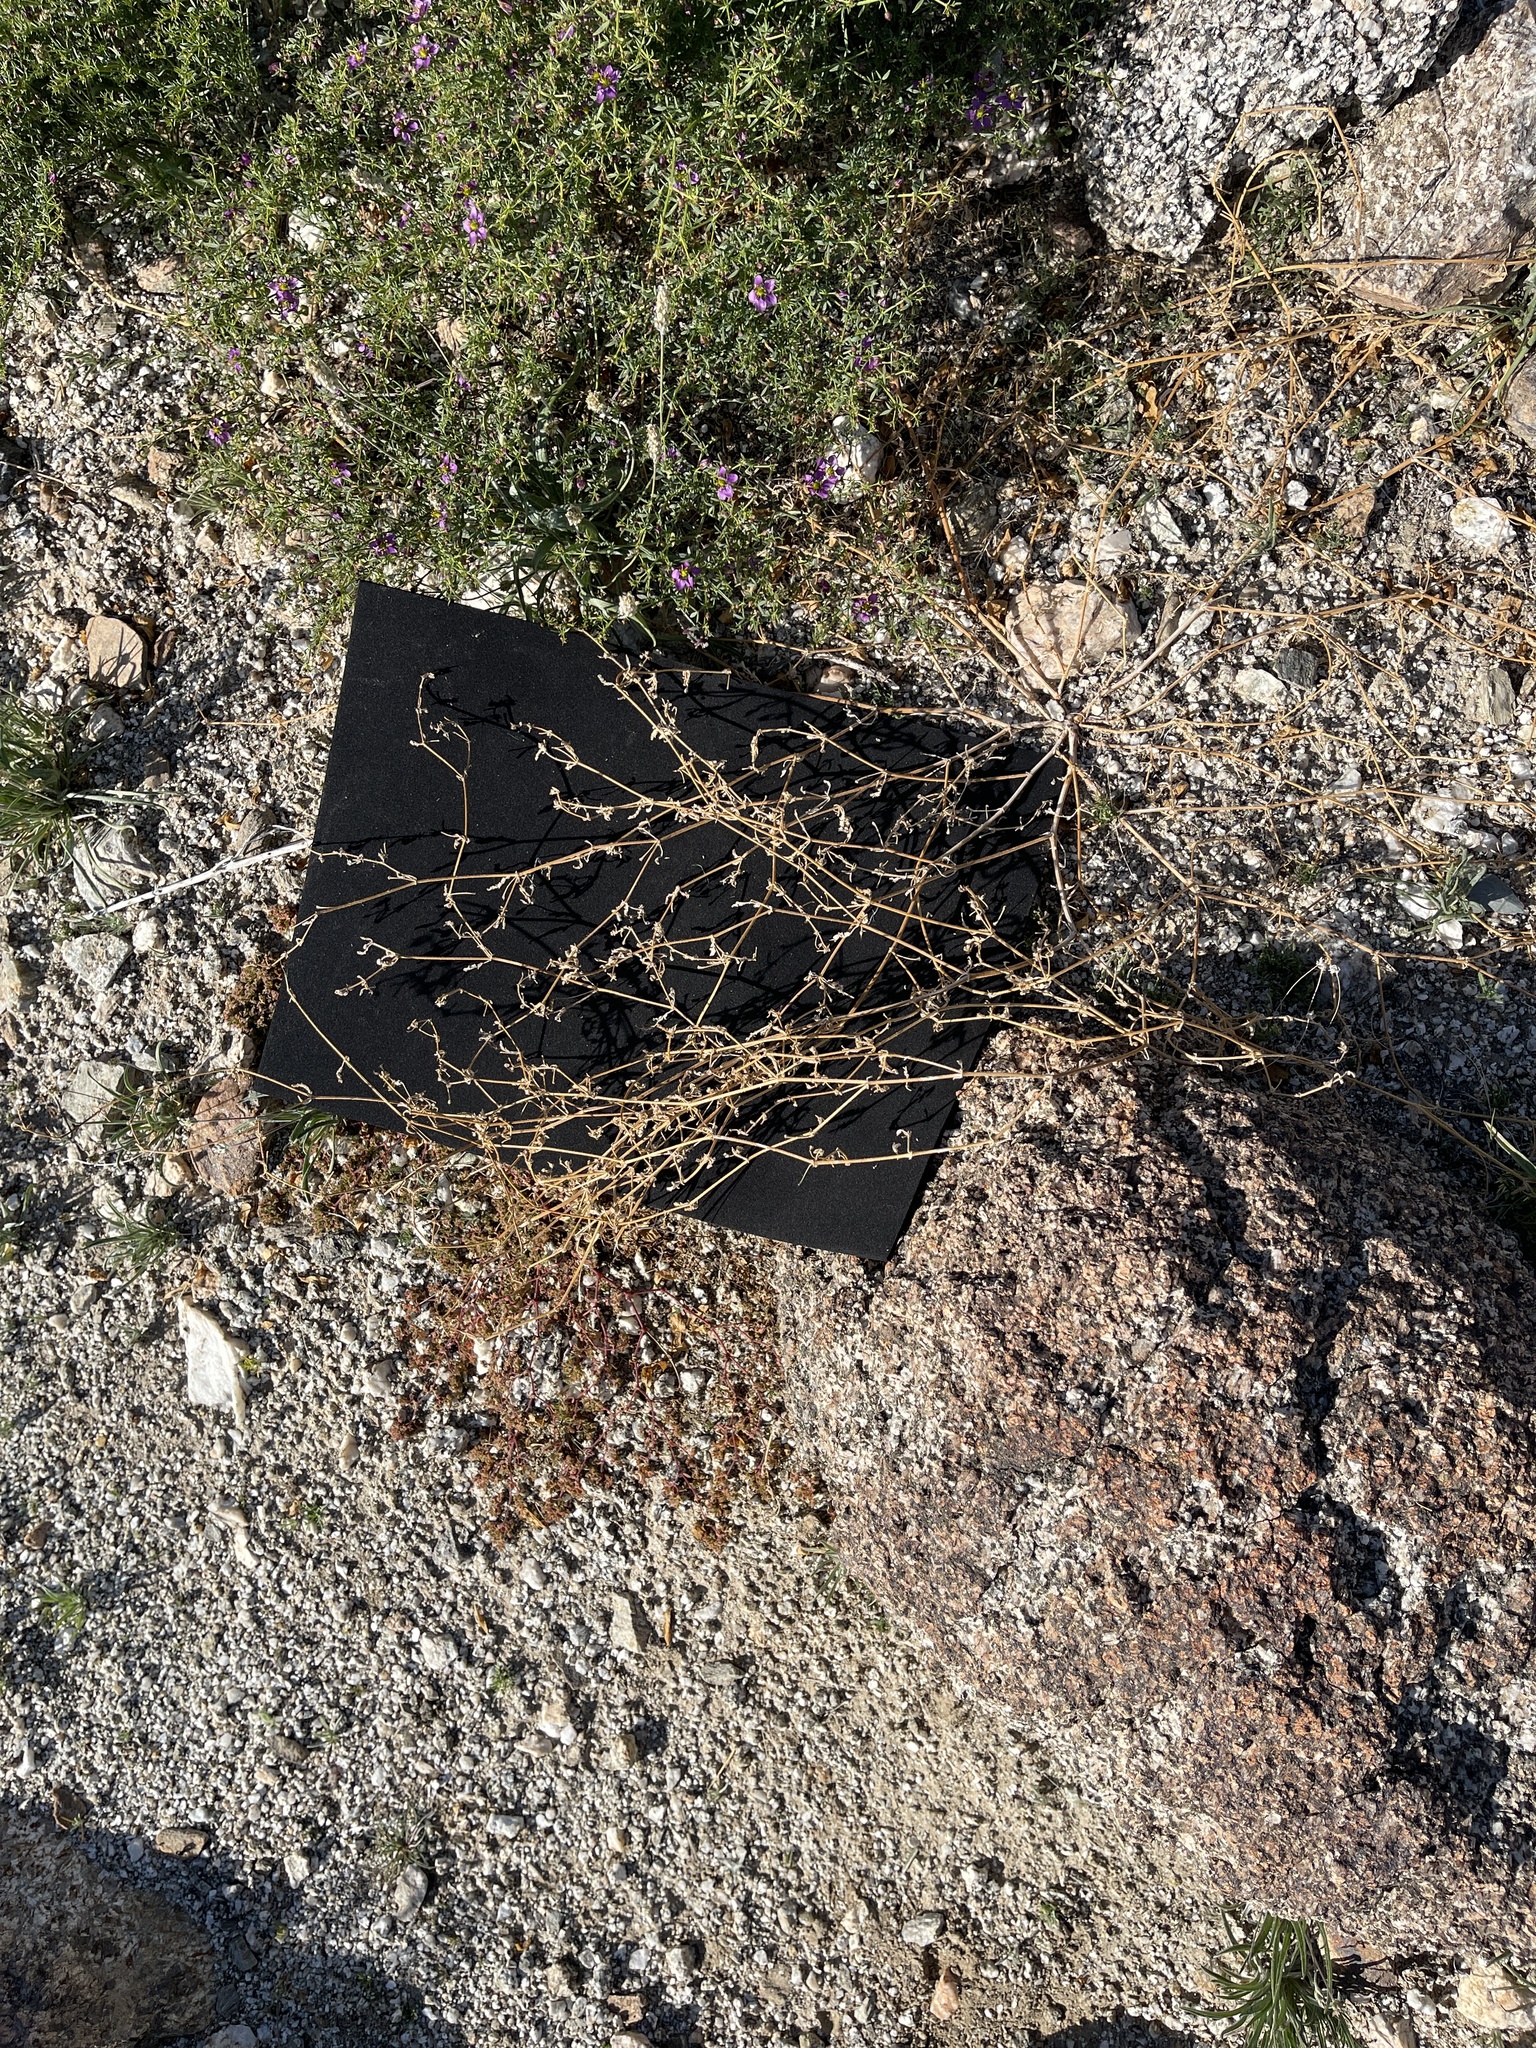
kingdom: Plantae
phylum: Tracheophyta
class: Magnoliopsida
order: Zygophyllales
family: Zygophyllaceae
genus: Kallstroemia
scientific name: Kallstroemia californica
